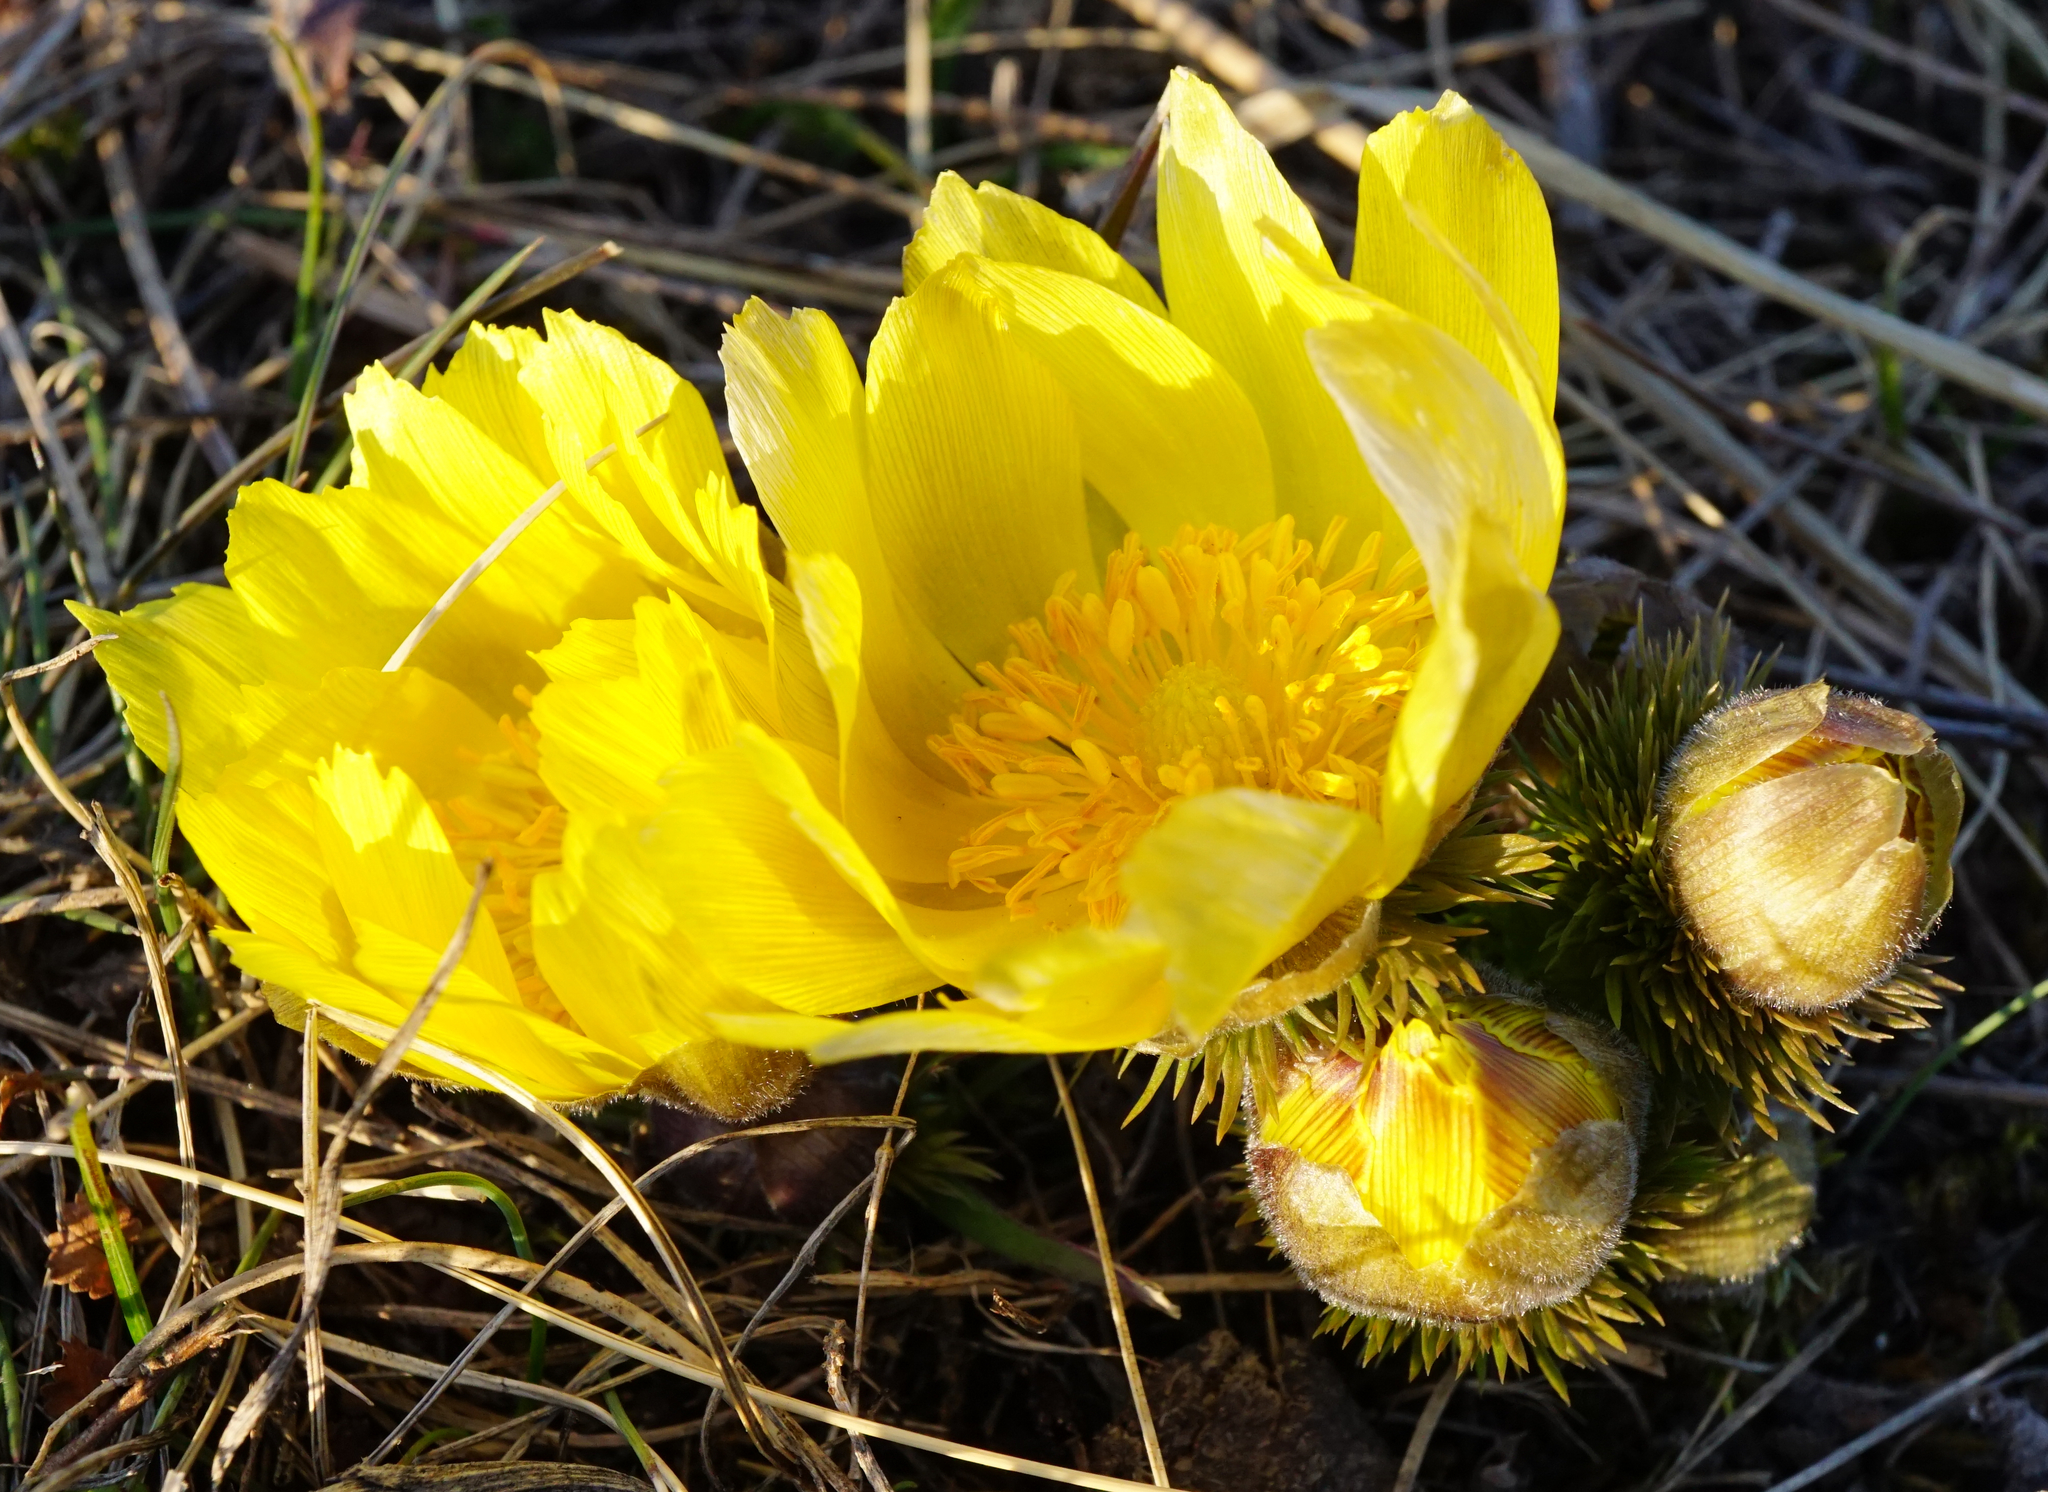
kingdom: Plantae
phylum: Tracheophyta
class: Magnoliopsida
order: Ranunculales
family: Ranunculaceae
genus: Adonis
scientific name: Adonis vernalis
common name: Yellow pheasants-eye
